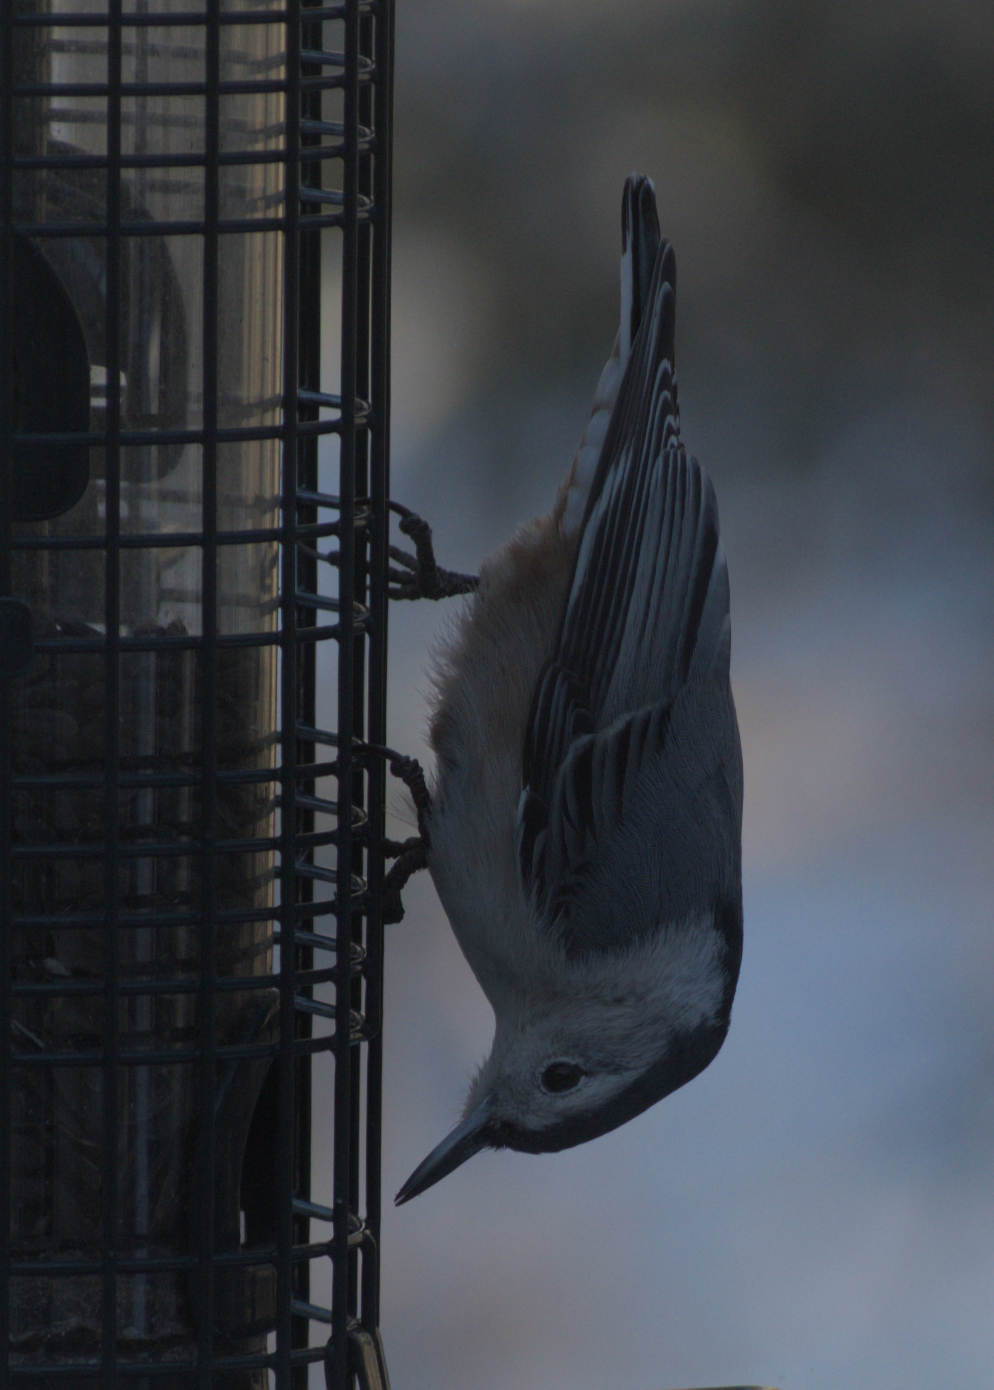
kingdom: Animalia
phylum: Chordata
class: Aves
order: Passeriformes
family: Sittidae
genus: Sitta
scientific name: Sitta carolinensis
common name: White-breasted nuthatch
